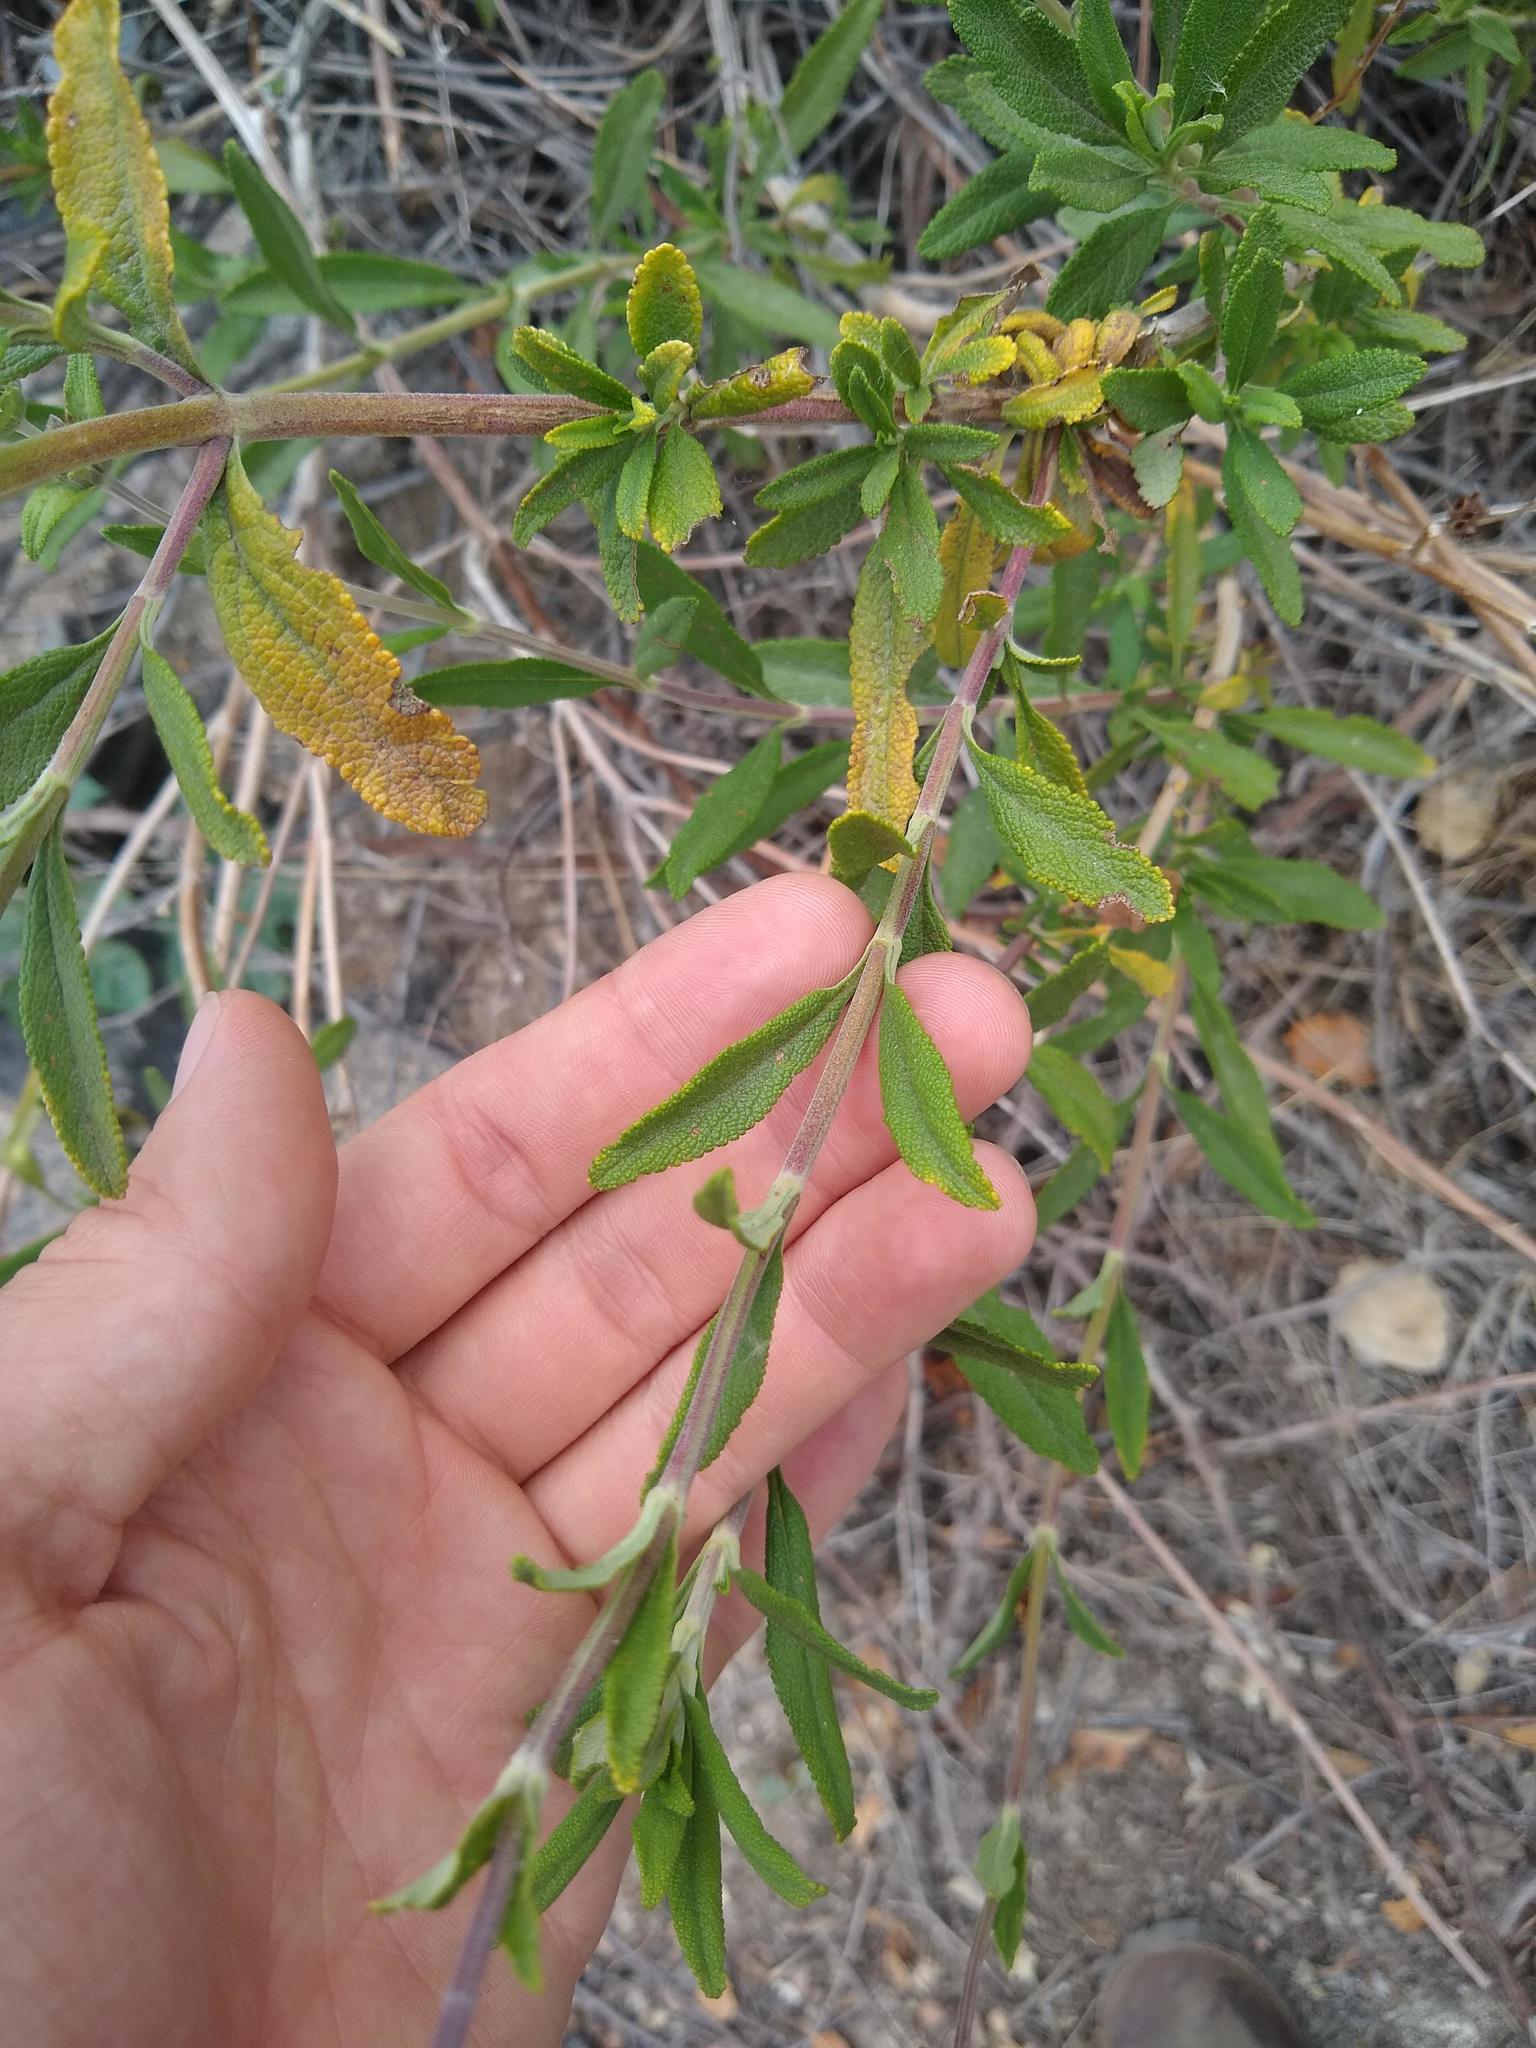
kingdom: Plantae
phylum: Tracheophyta
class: Magnoliopsida
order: Lamiales
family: Lamiaceae
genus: Salvia
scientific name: Salvia mellifera
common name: Black sage
